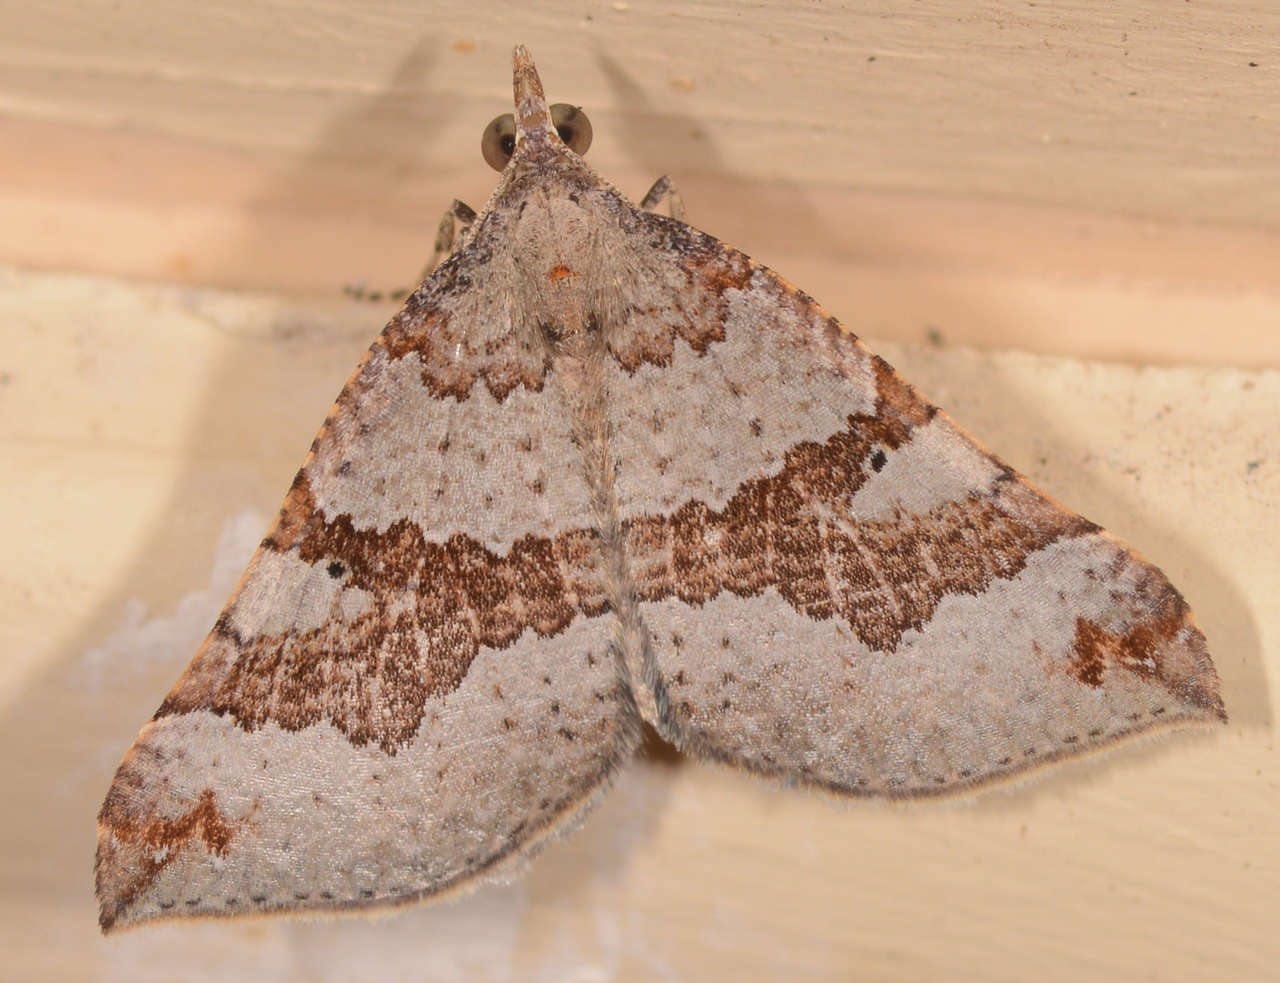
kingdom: Animalia
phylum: Arthropoda
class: Insecta
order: Lepidoptera
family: Geometridae
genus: Anachloris
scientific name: Anachloris uncinata
